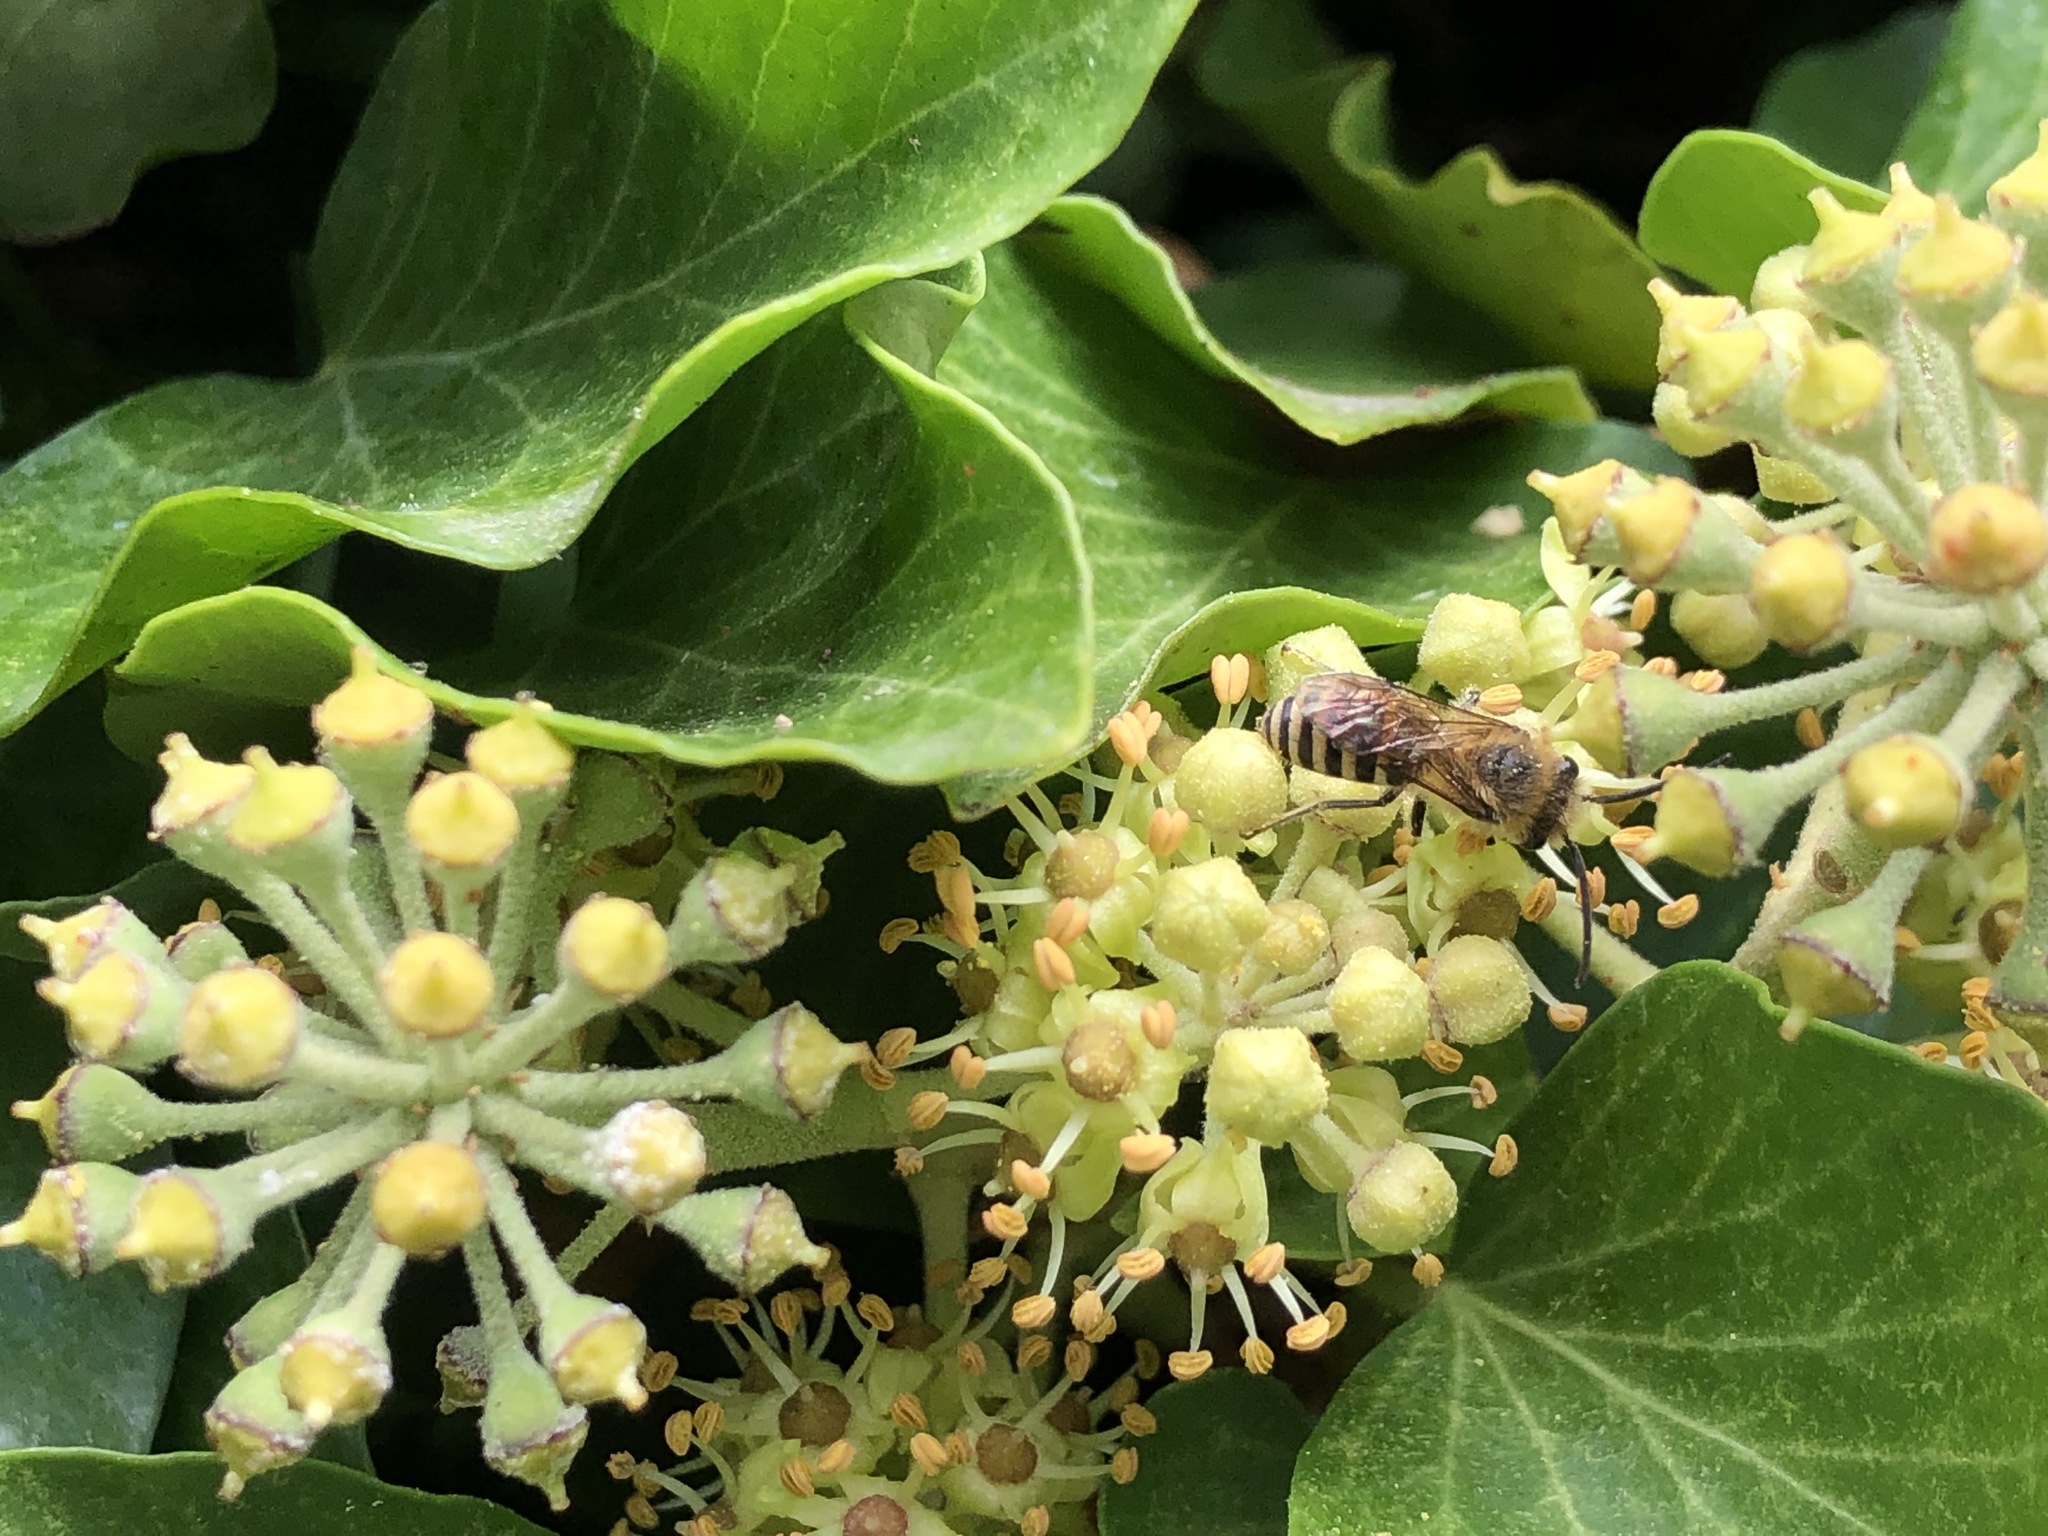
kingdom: Animalia
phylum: Arthropoda
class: Insecta
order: Hymenoptera
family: Colletidae
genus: Colletes
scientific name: Colletes hederae
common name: Ivy bee
